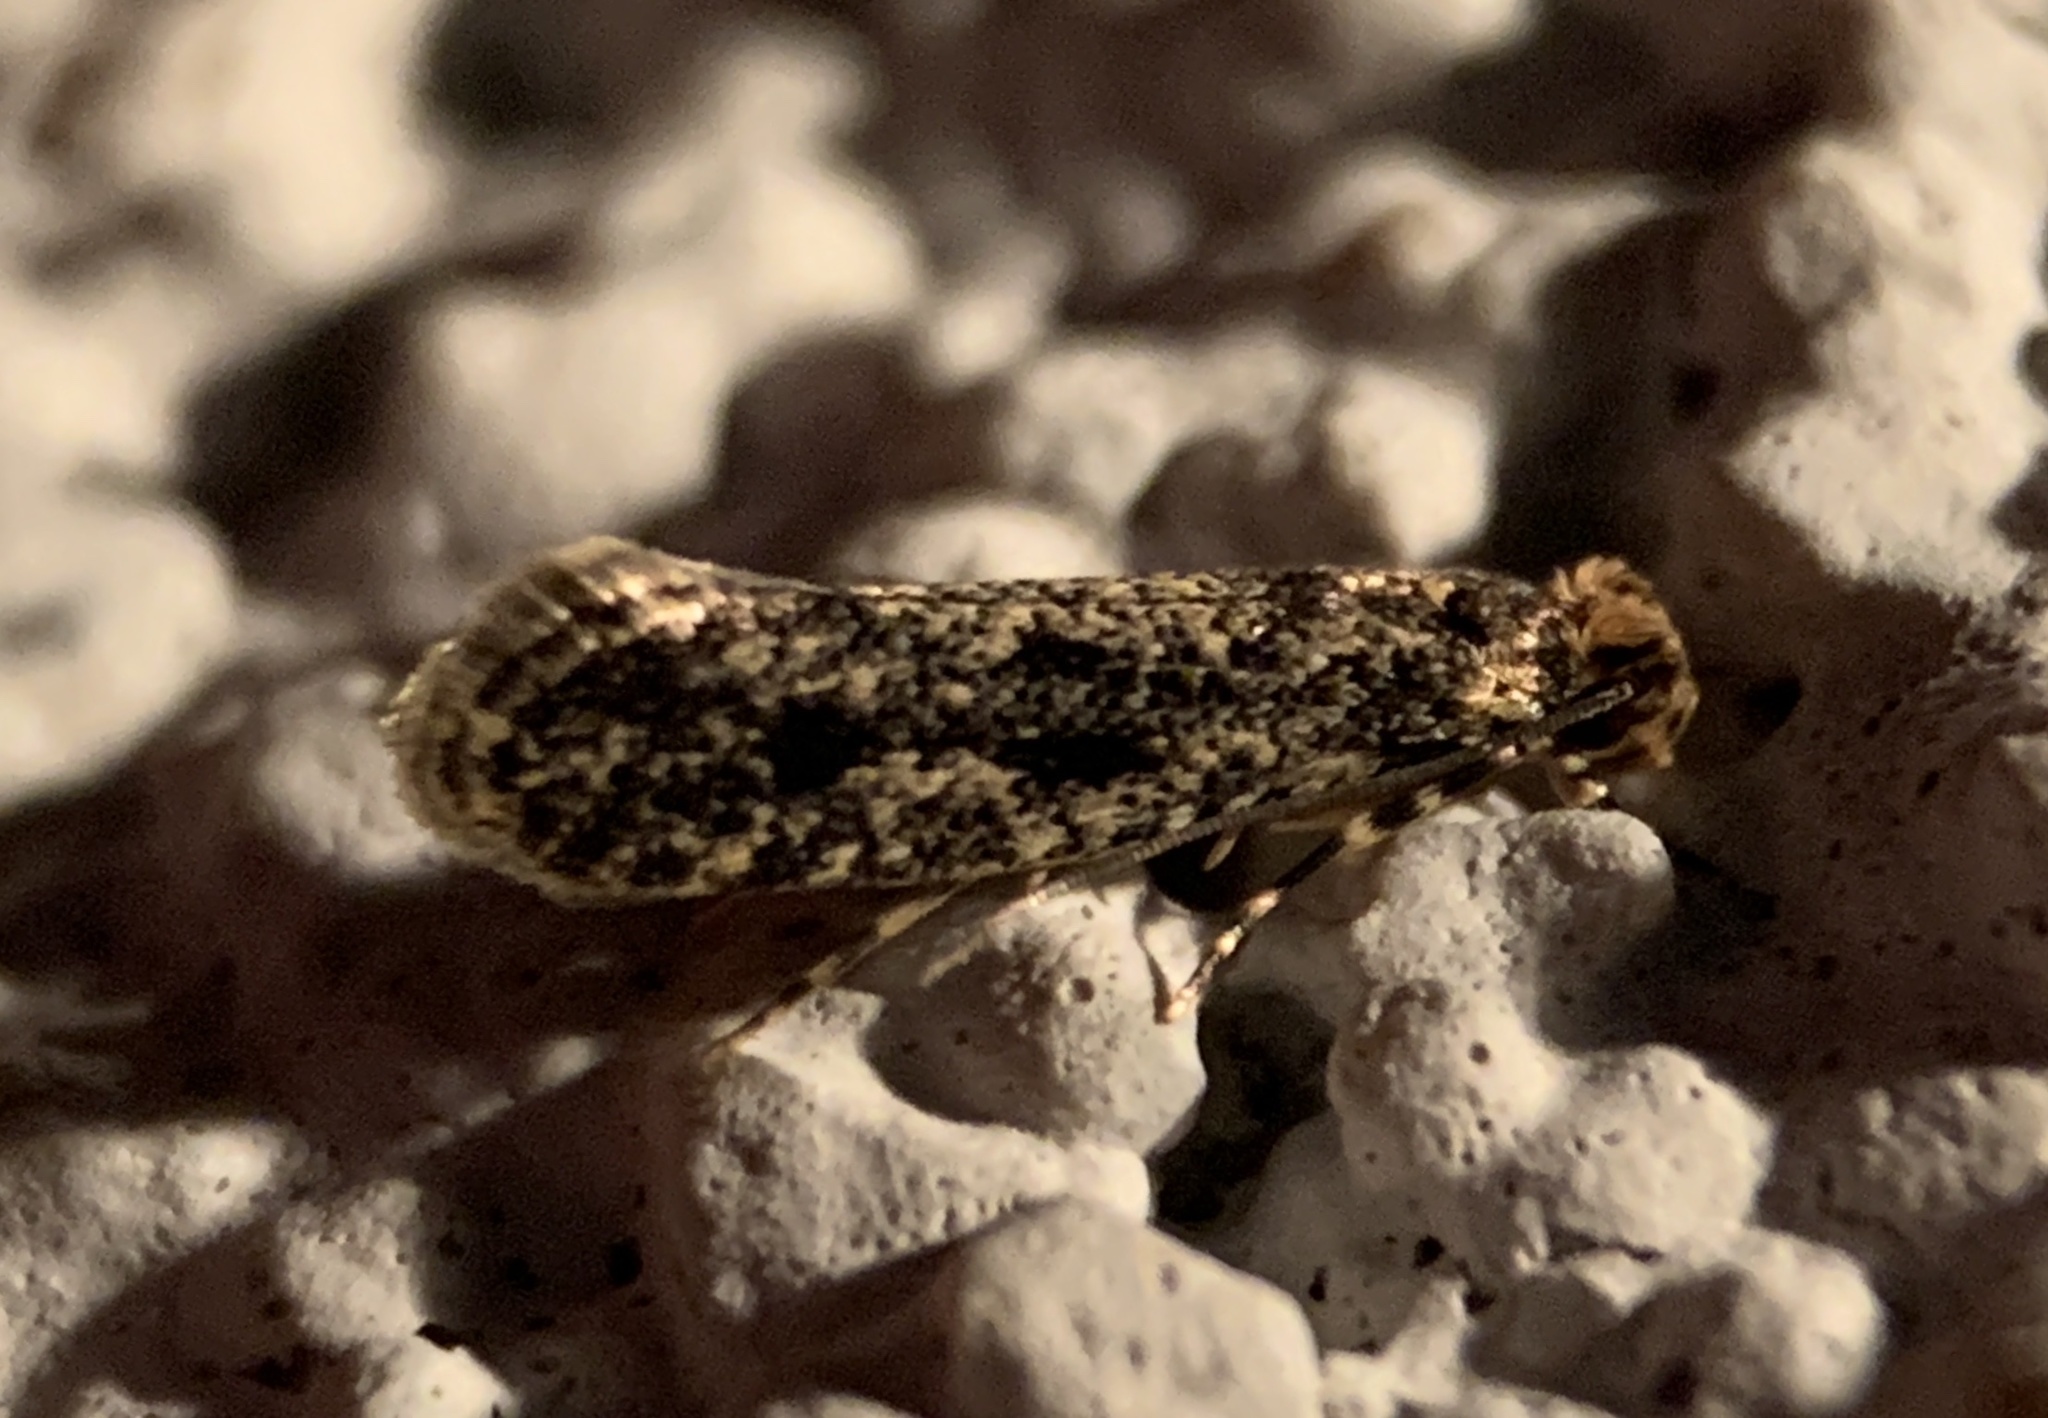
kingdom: Animalia
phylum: Arthropoda
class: Insecta
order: Lepidoptera
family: Tineidae
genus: Niditinea
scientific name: Niditinea orleansella
